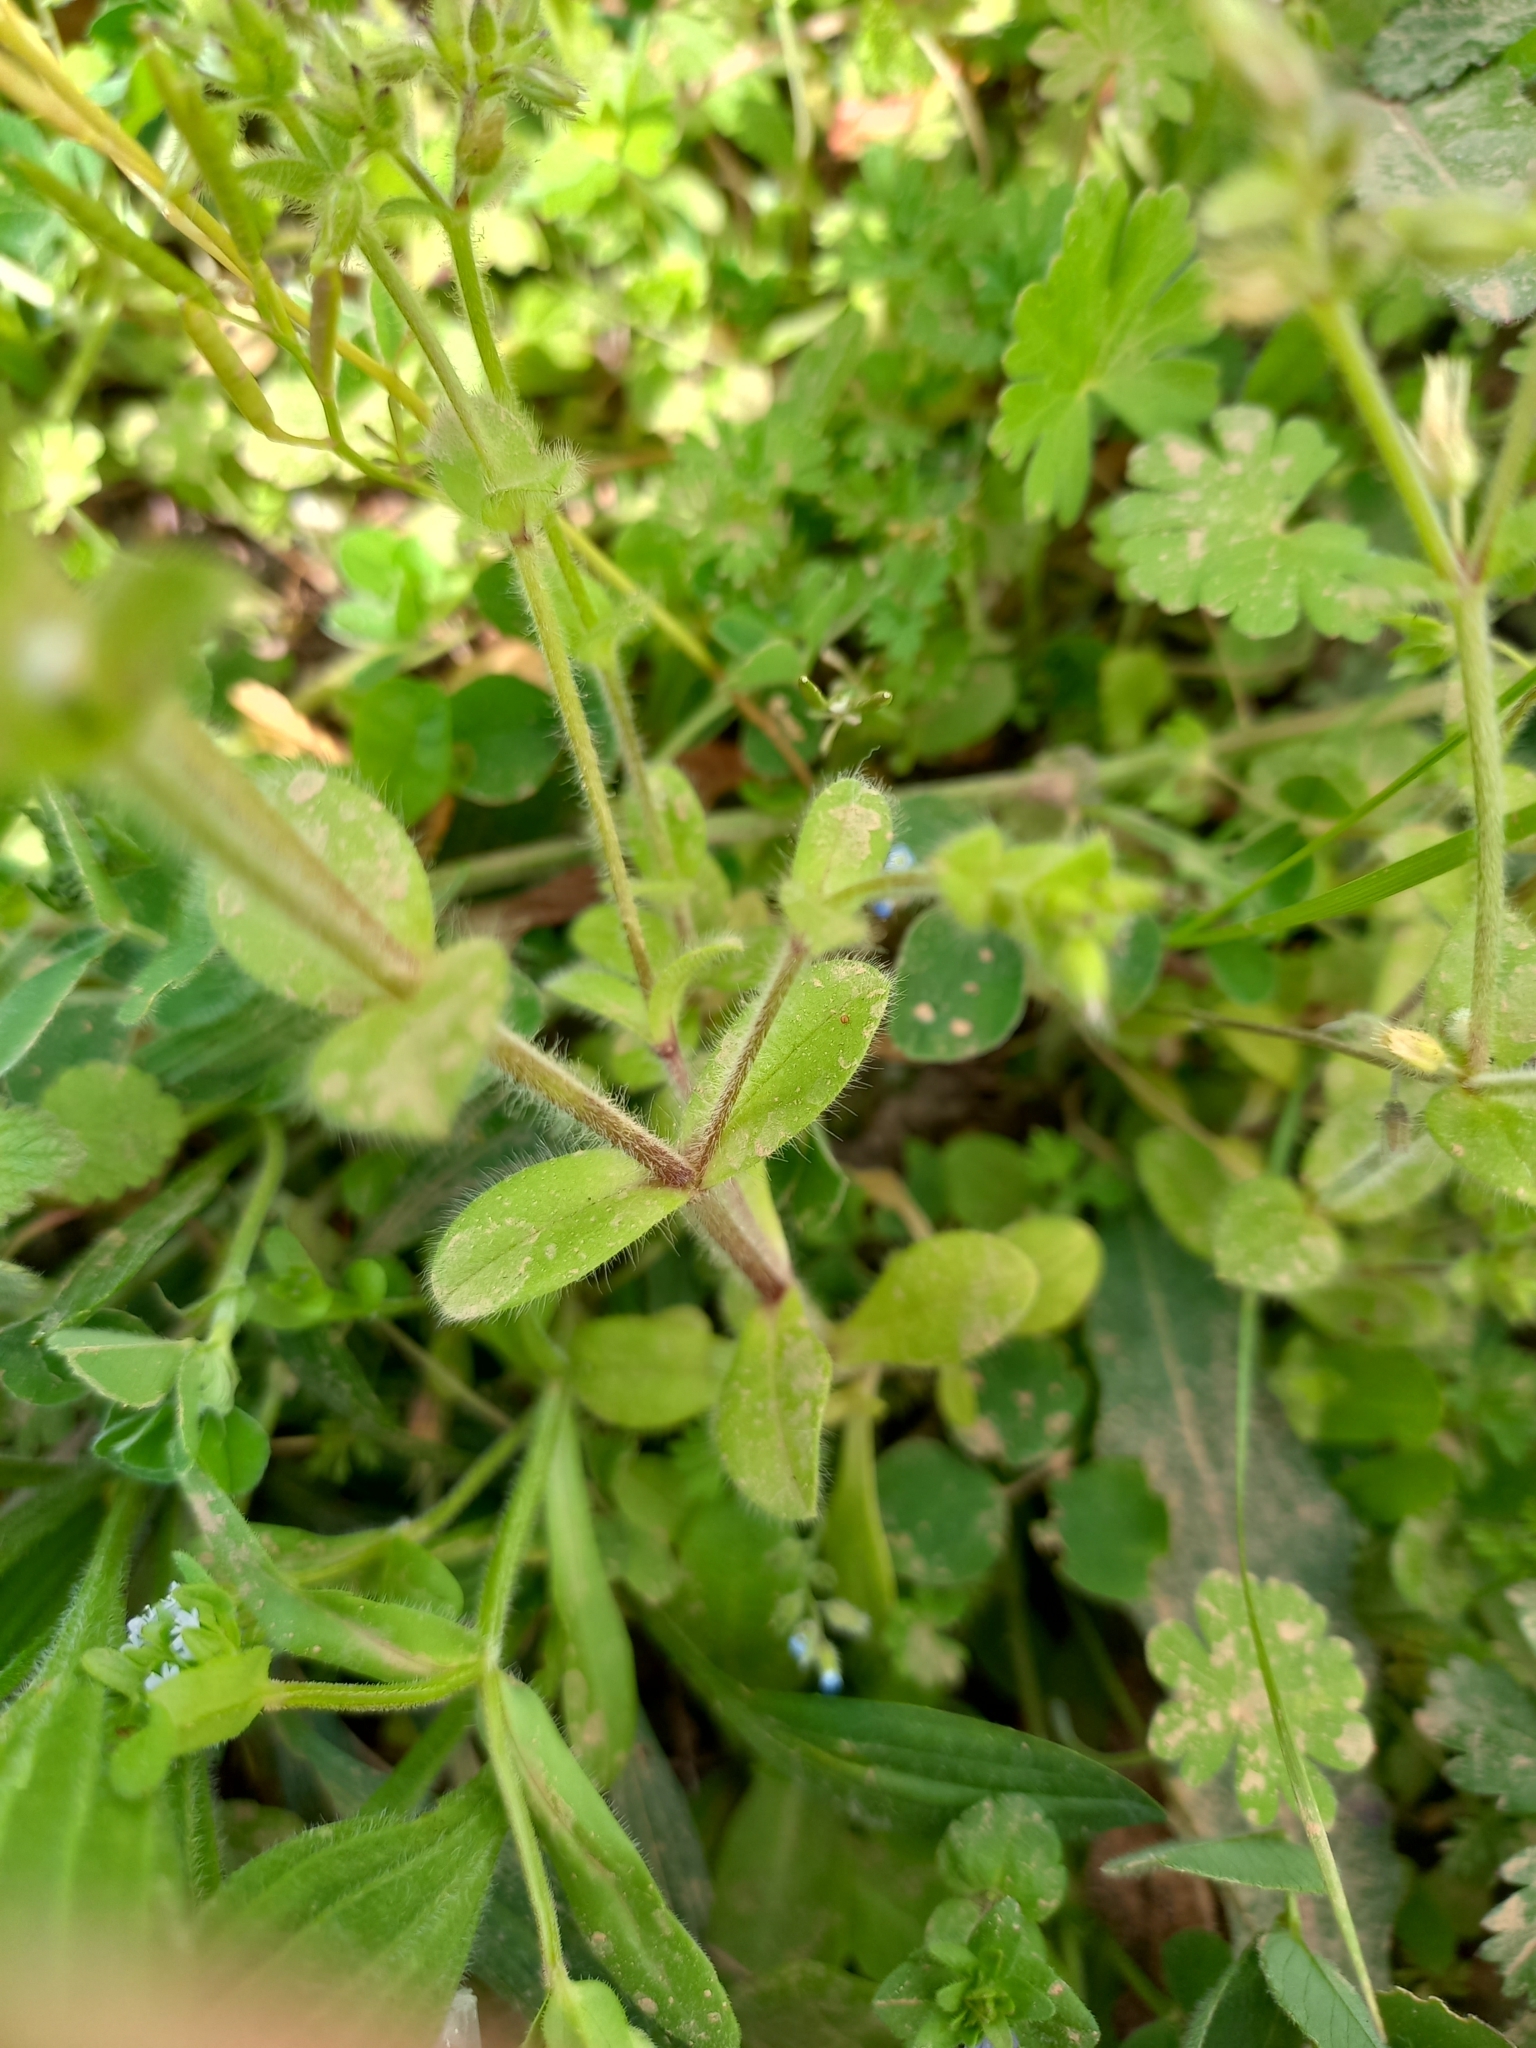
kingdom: Plantae
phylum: Tracheophyta
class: Magnoliopsida
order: Caryophyllales
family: Caryophyllaceae
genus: Cerastium
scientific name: Cerastium glomeratum
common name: Sticky chickweed
